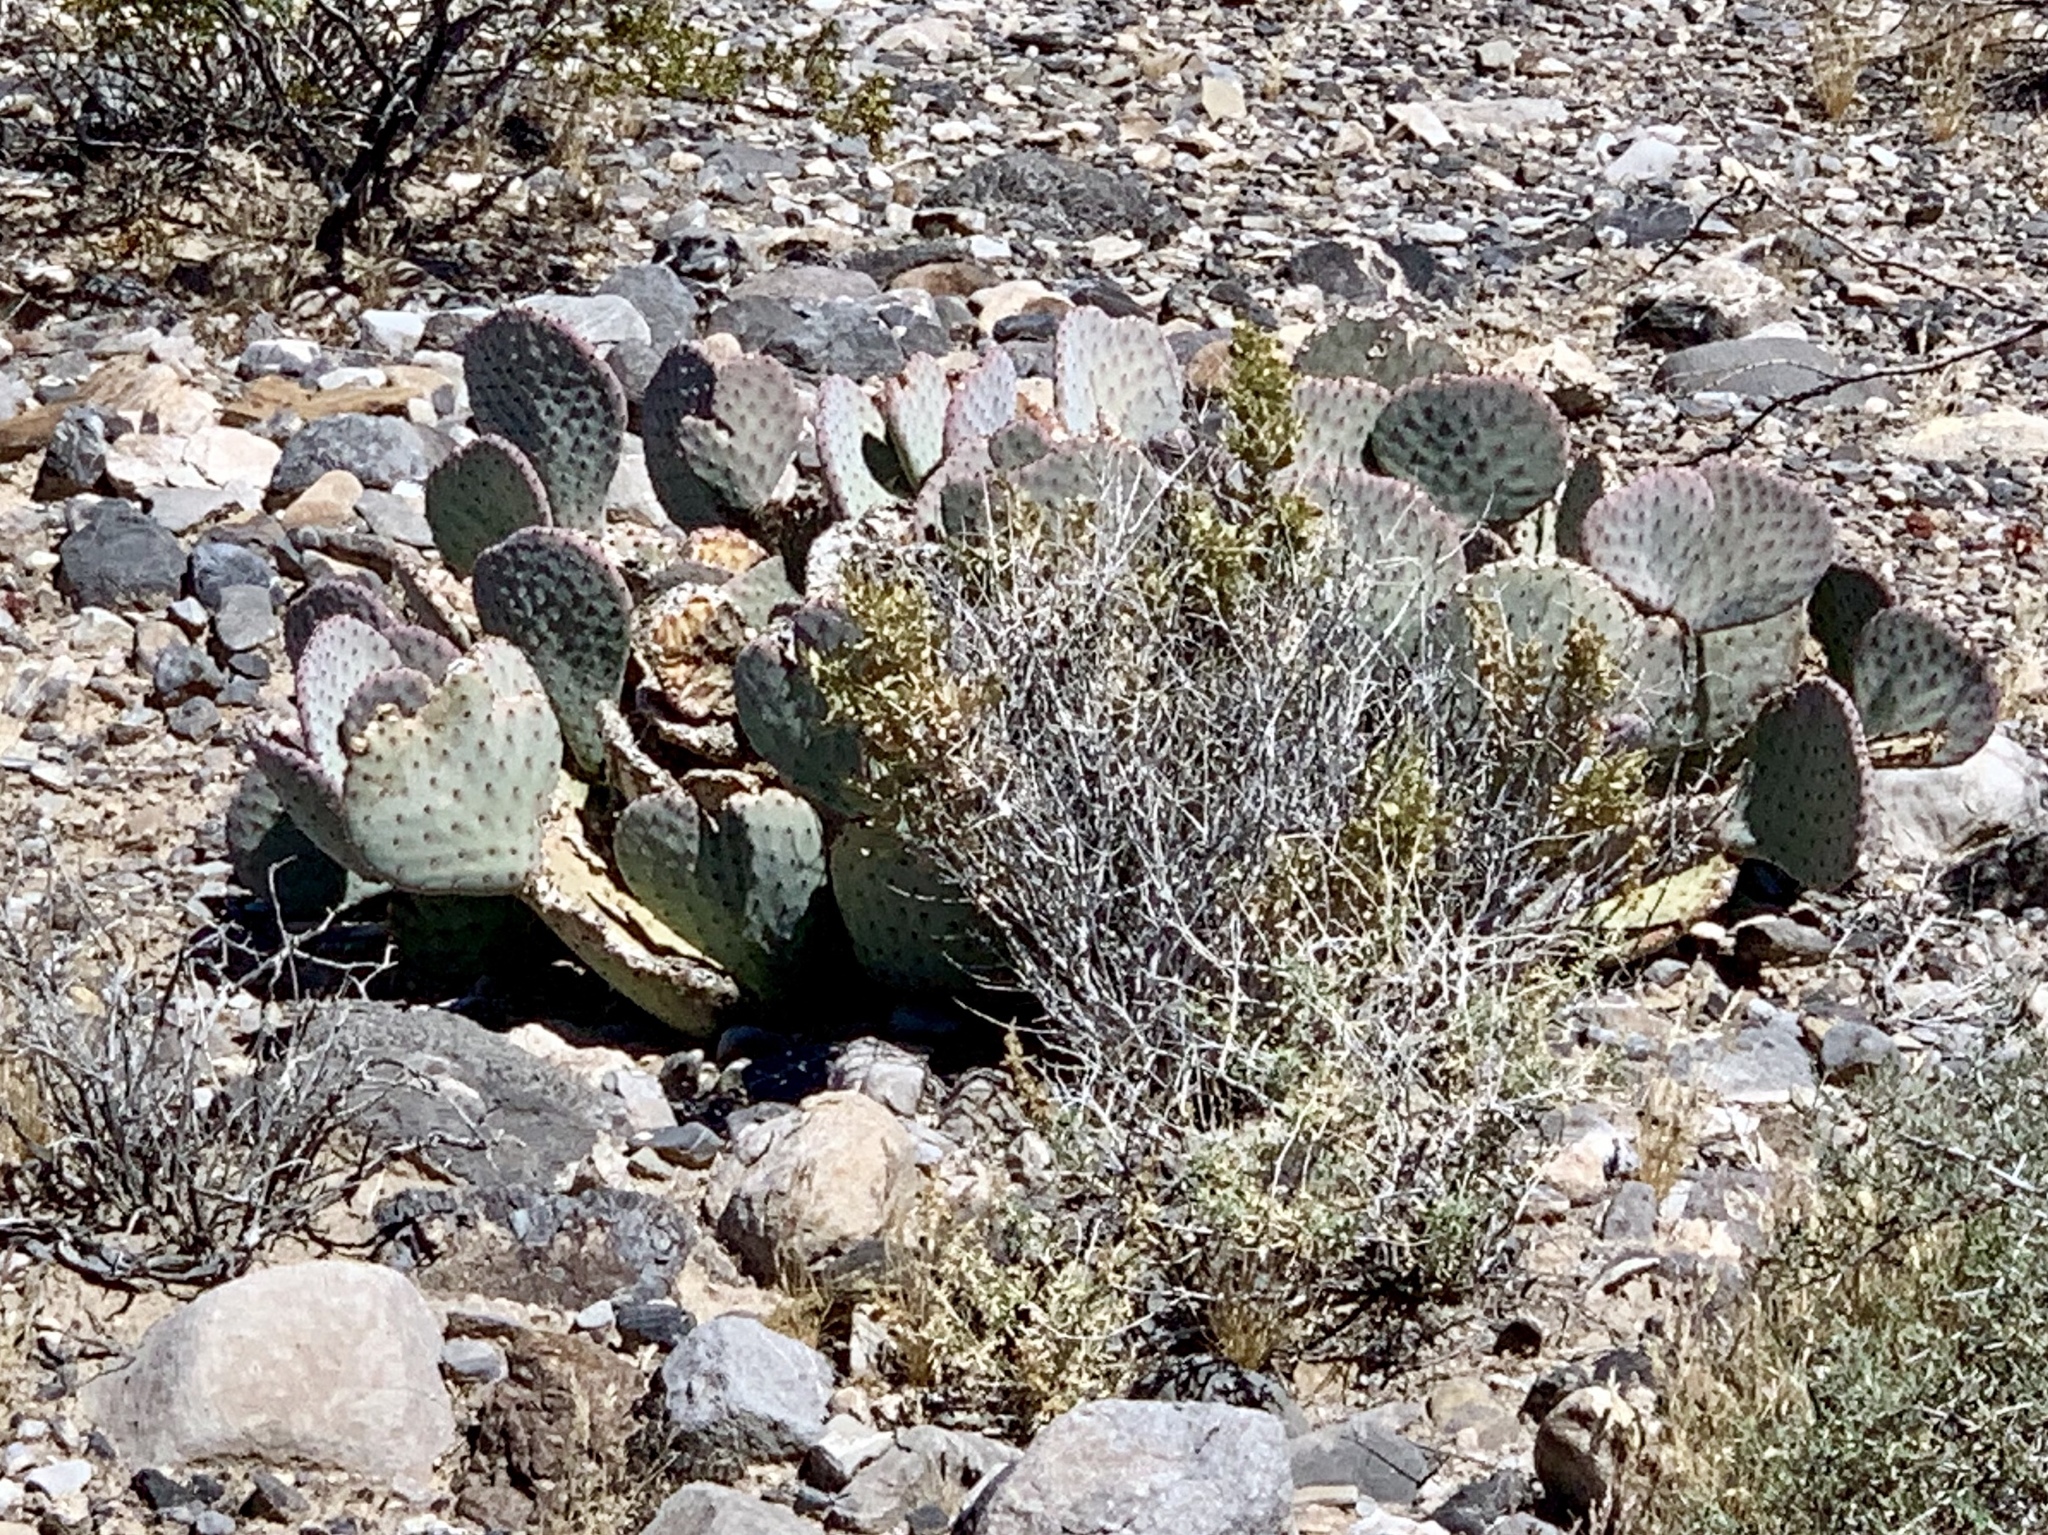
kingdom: Plantae
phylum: Tracheophyta
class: Magnoliopsida
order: Caryophyllales
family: Cactaceae
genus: Opuntia
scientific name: Opuntia basilaris
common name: Beavertail prickly-pear
